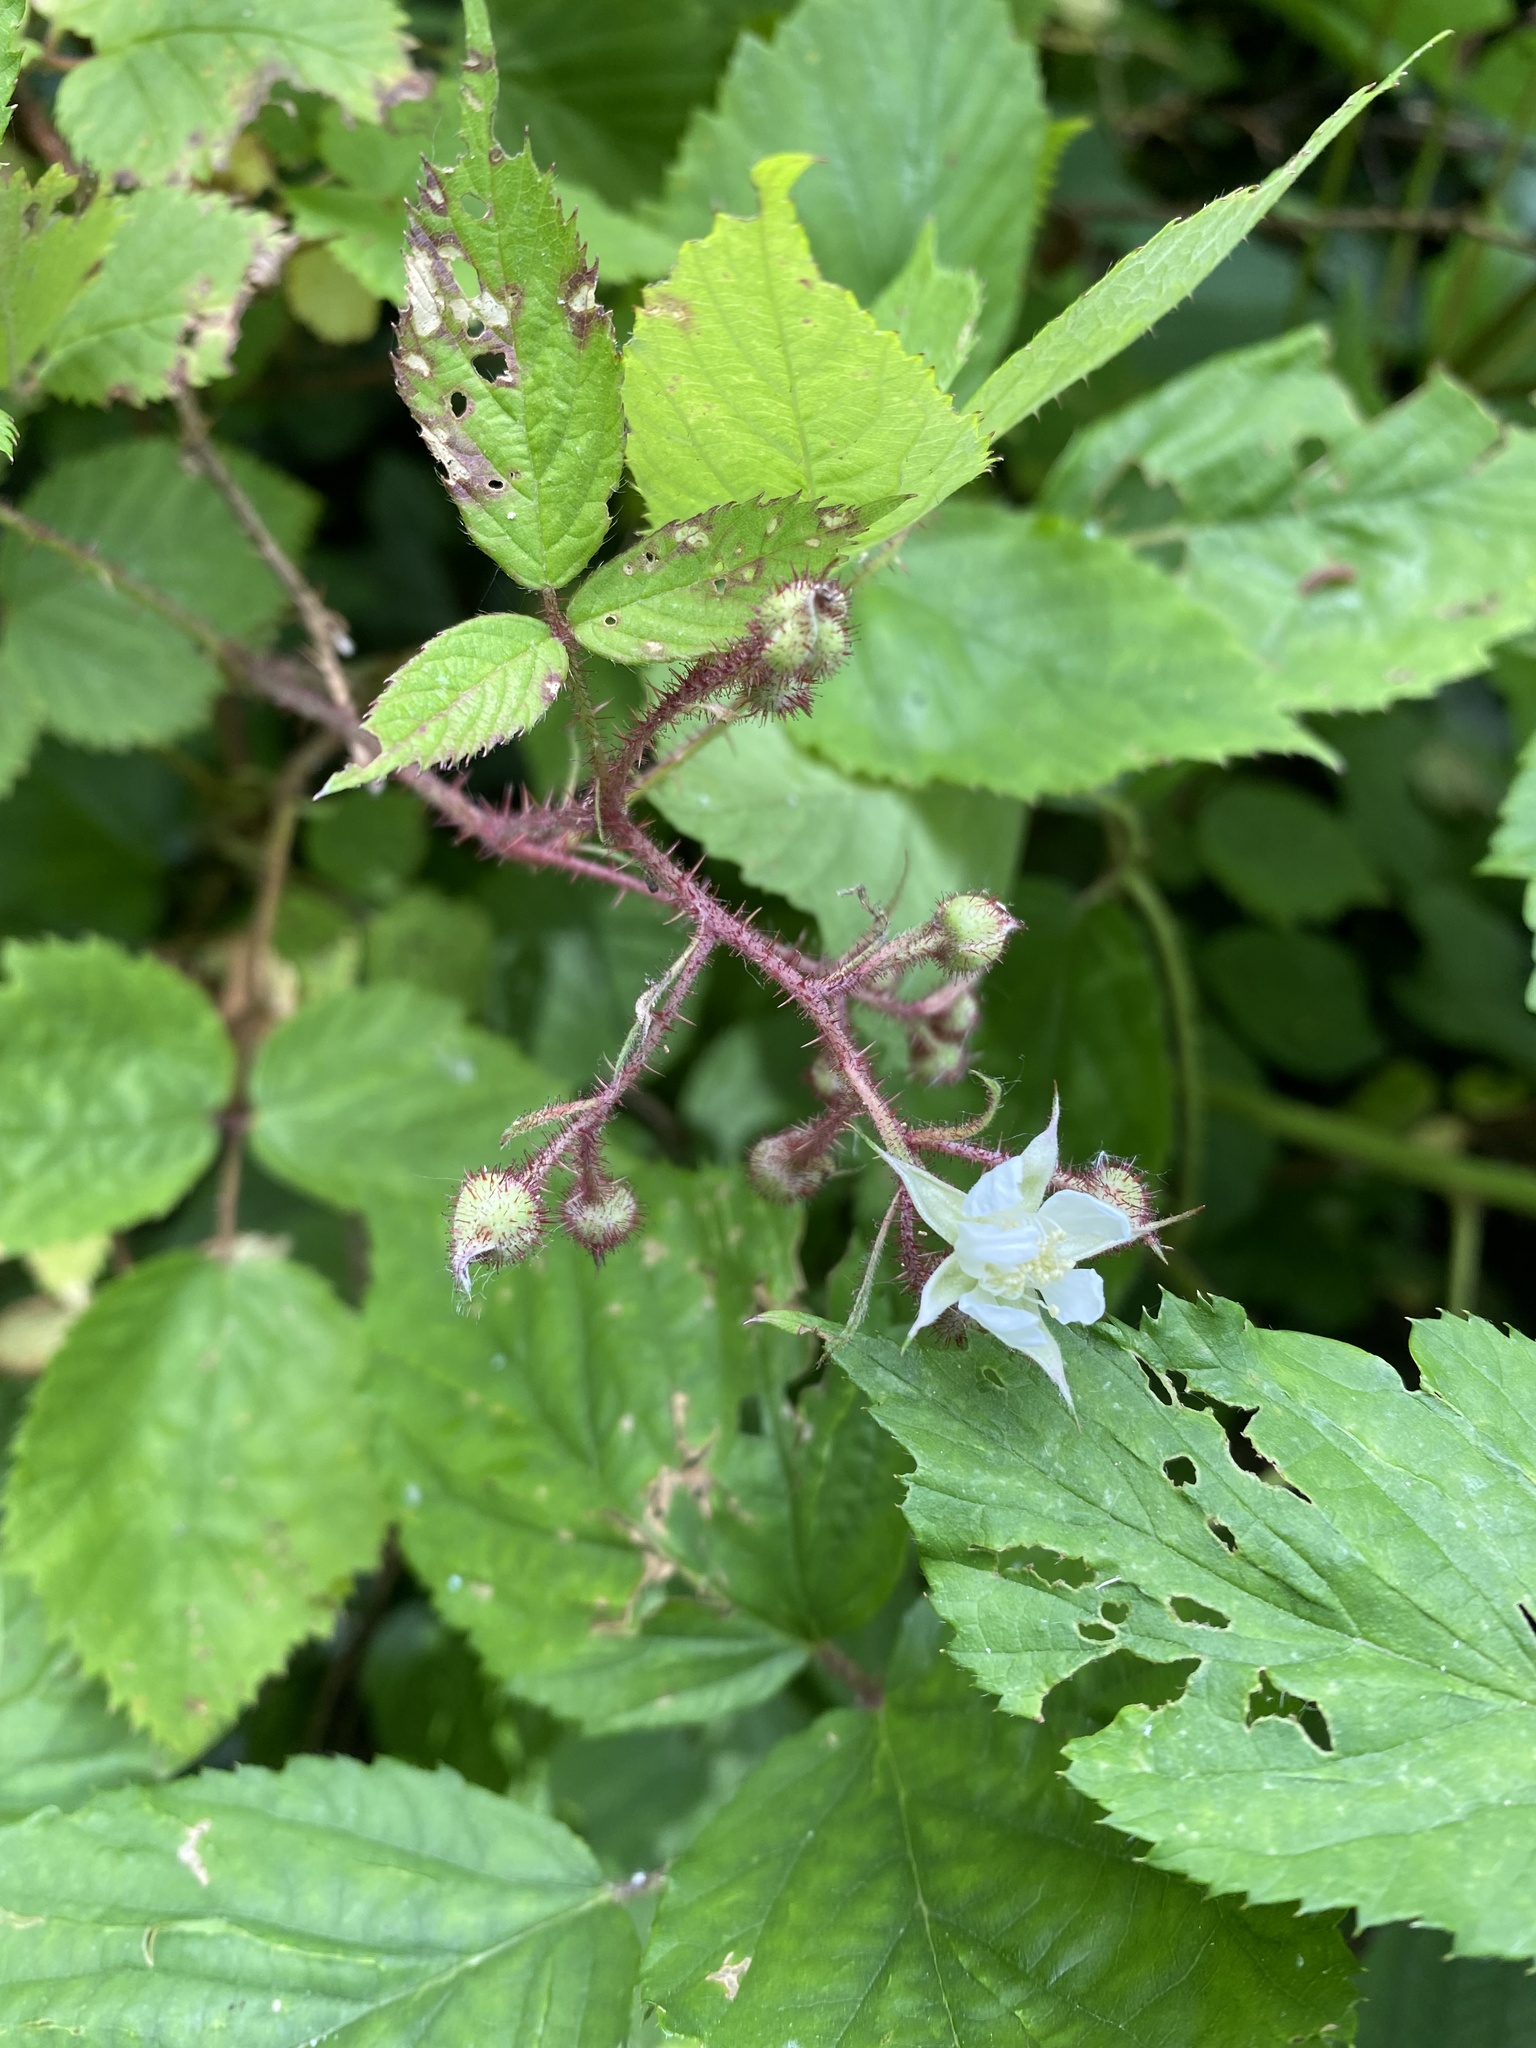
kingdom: Plantae
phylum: Tracheophyta
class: Magnoliopsida
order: Rosales
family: Rosaceae
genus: Rubus
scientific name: Rubus hirtus
